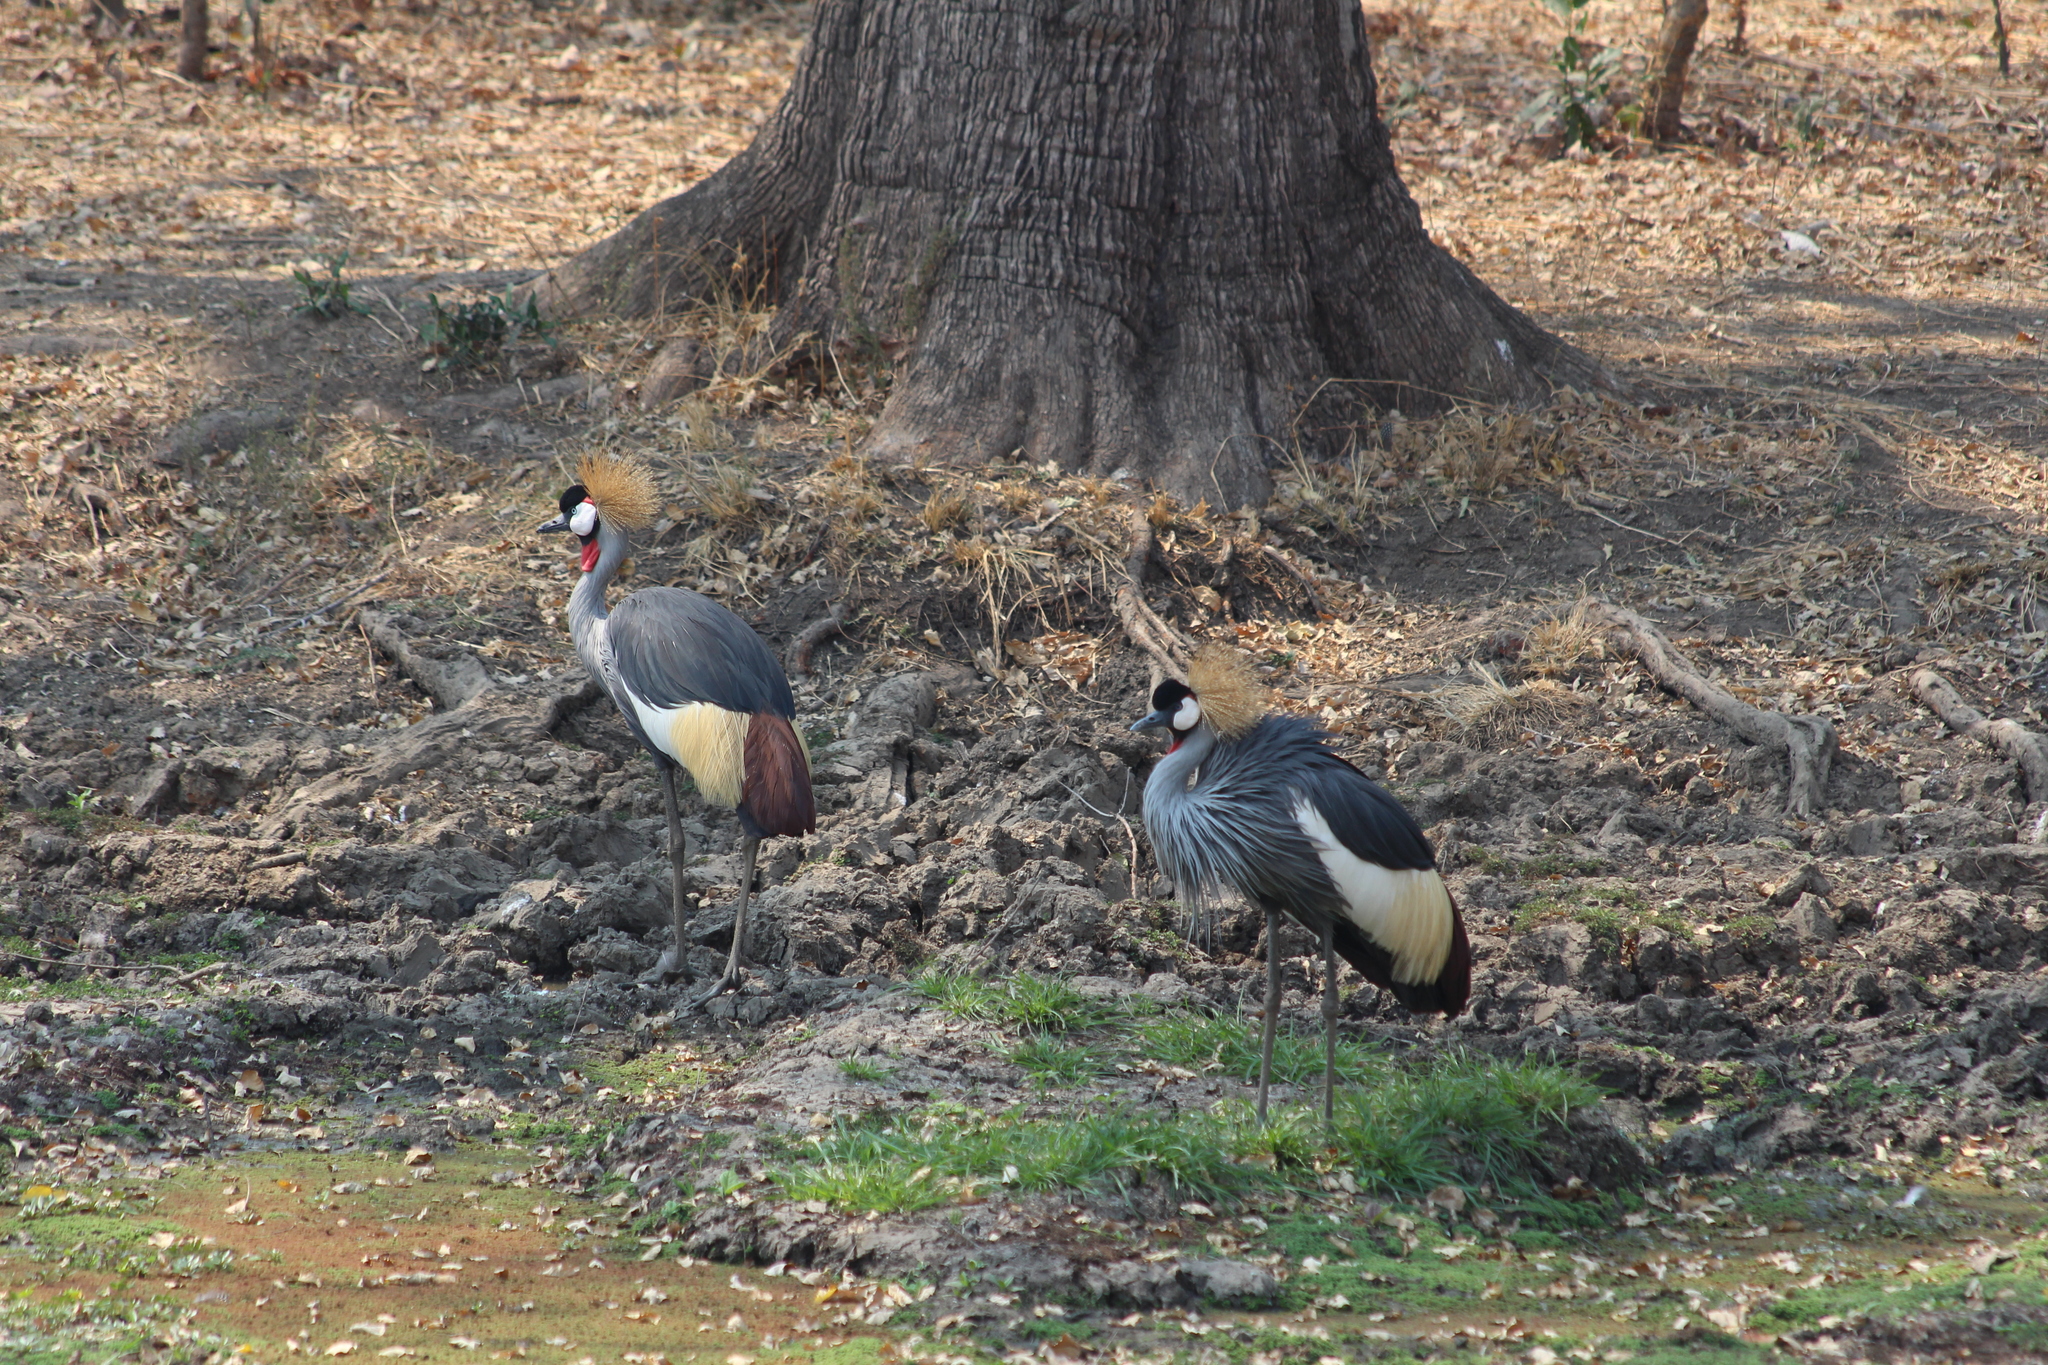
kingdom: Animalia
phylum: Chordata
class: Aves
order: Gruiformes
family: Gruidae
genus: Balearica
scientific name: Balearica regulorum
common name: Grey crowned crane
